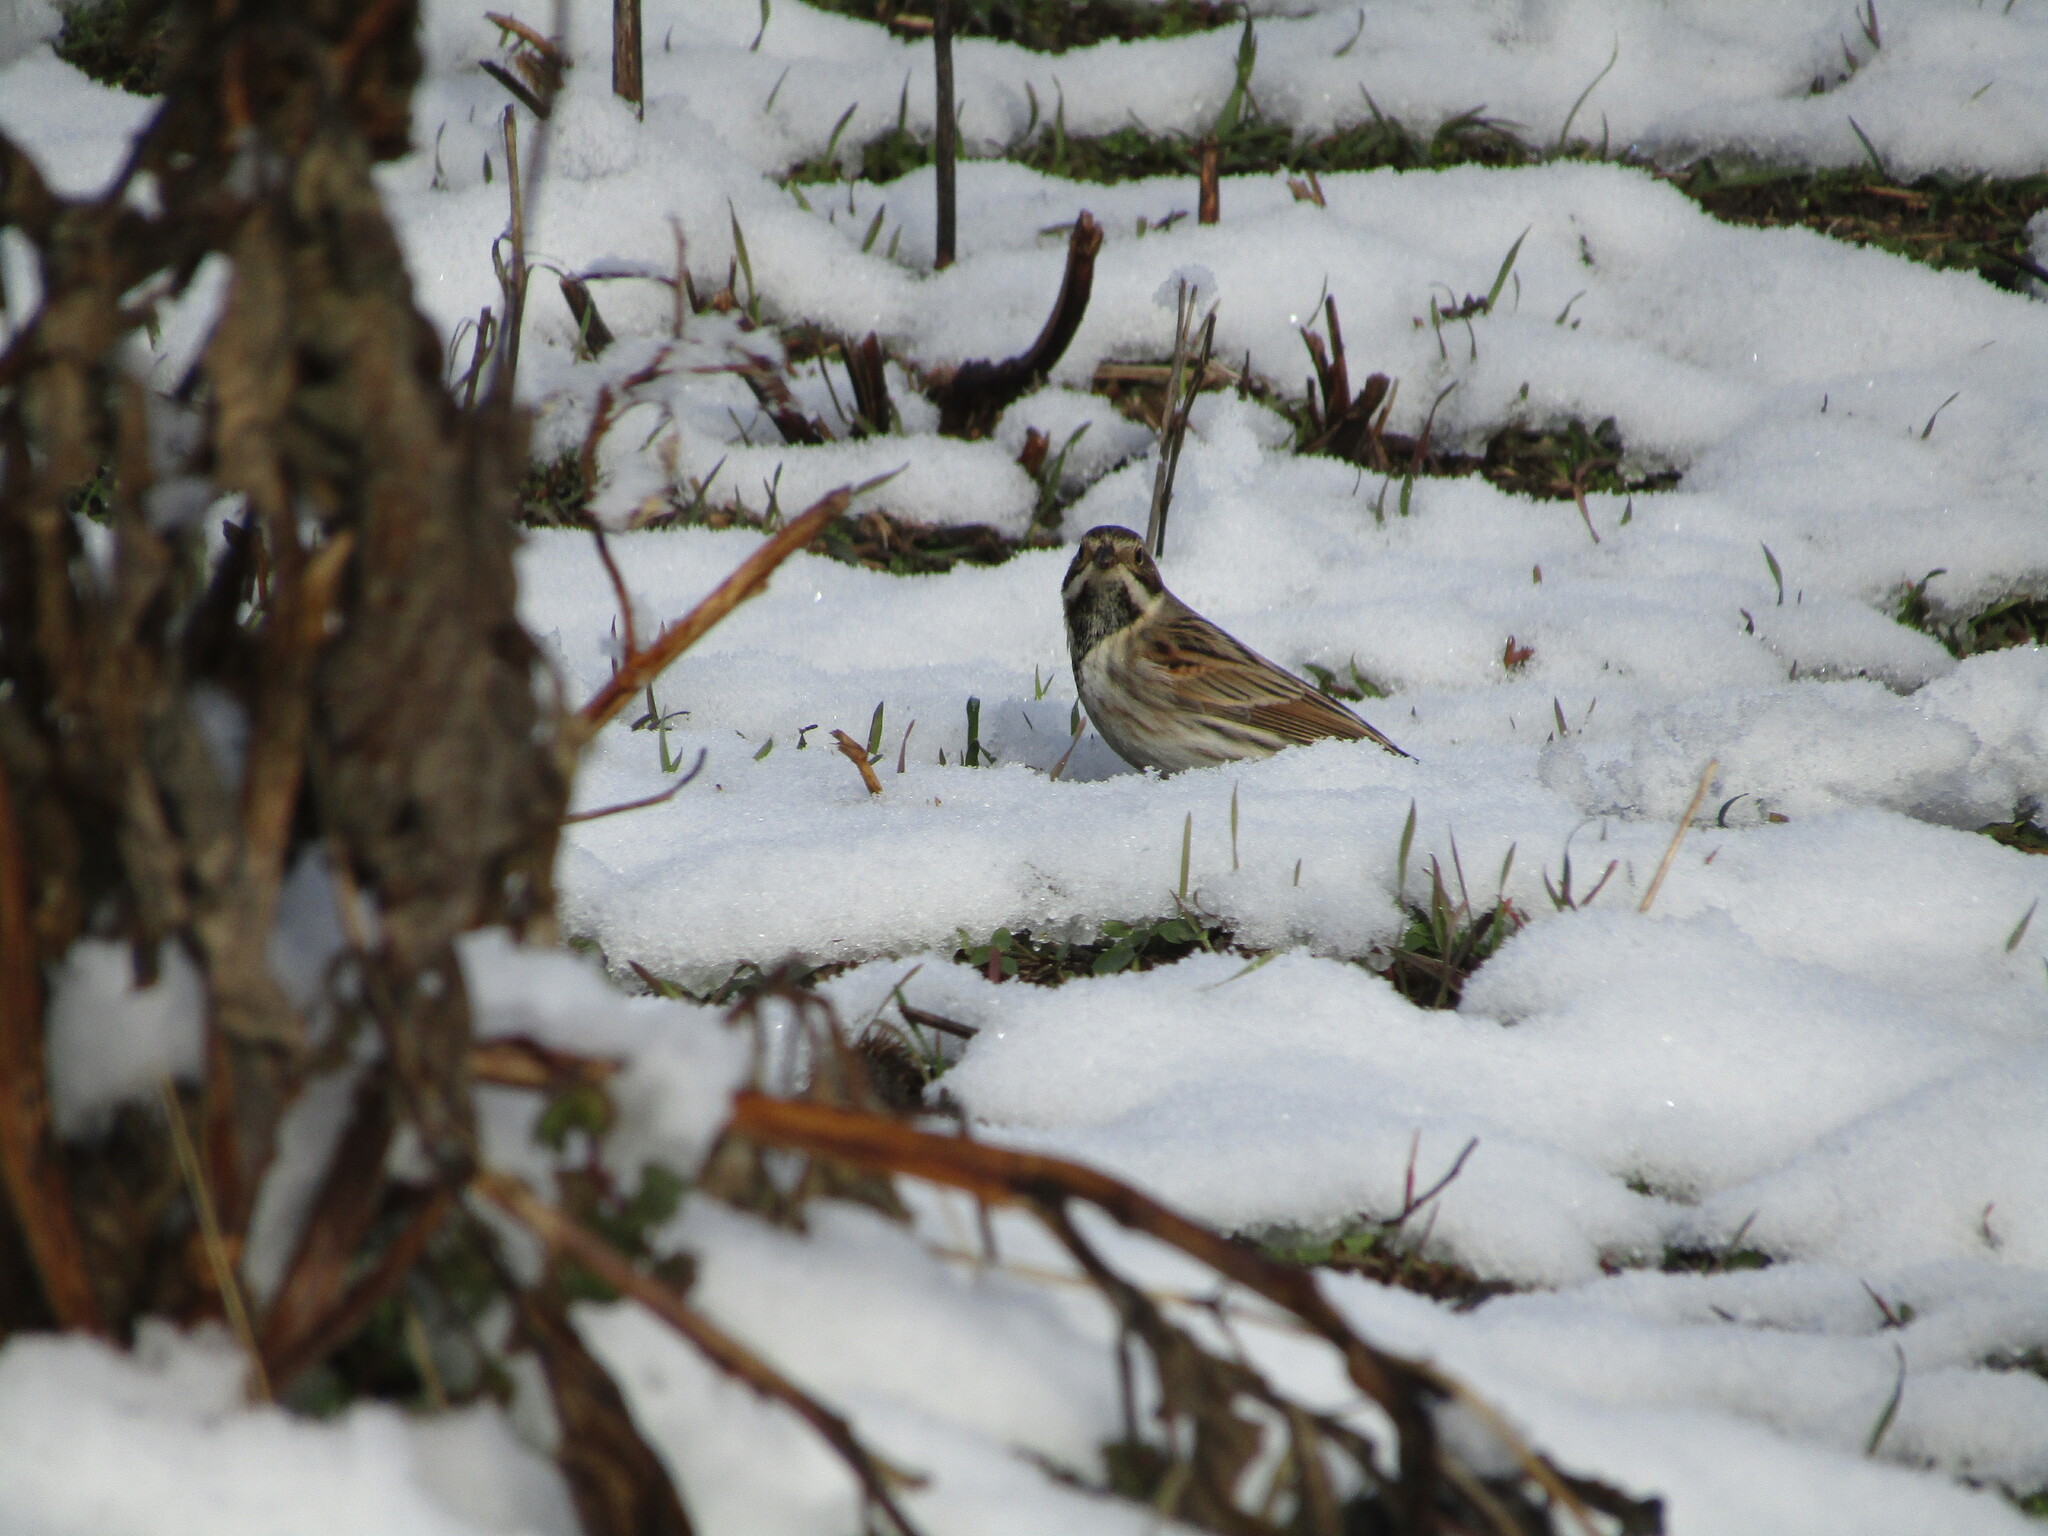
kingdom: Animalia
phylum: Chordata
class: Aves
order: Passeriformes
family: Emberizidae
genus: Emberiza
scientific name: Emberiza schoeniclus
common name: Reed bunting
